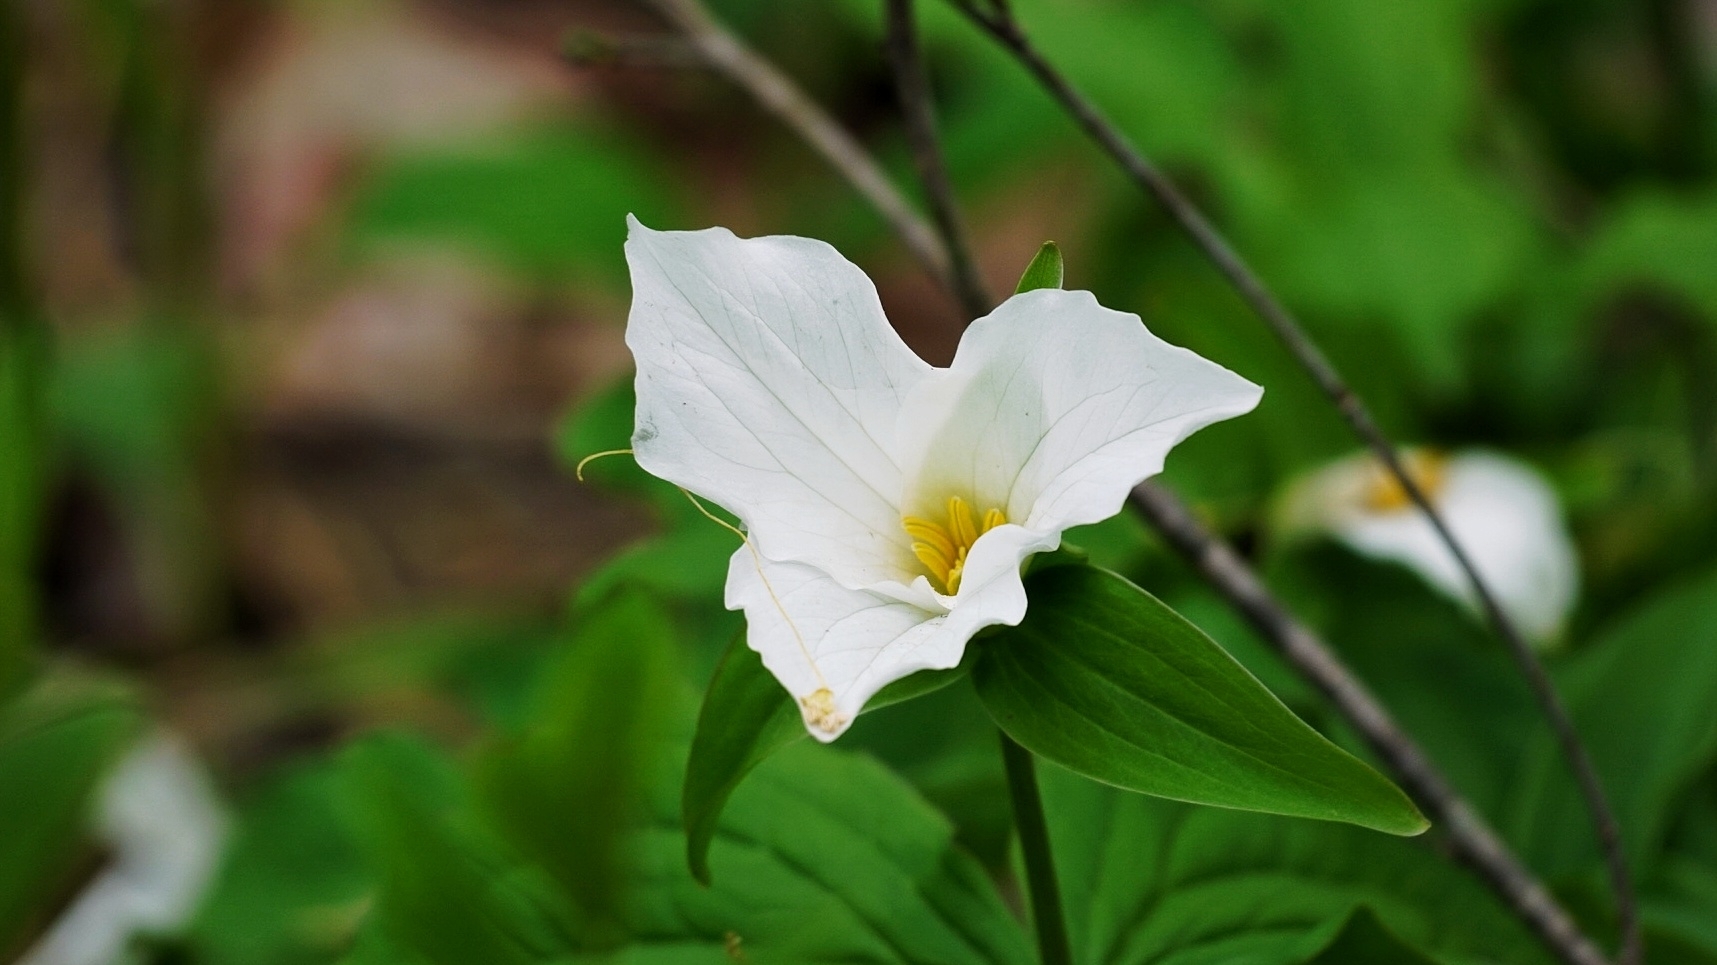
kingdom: Plantae
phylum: Tracheophyta
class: Liliopsida
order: Liliales
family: Melanthiaceae
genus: Trillium
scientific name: Trillium grandiflorum
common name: Great white trillium
